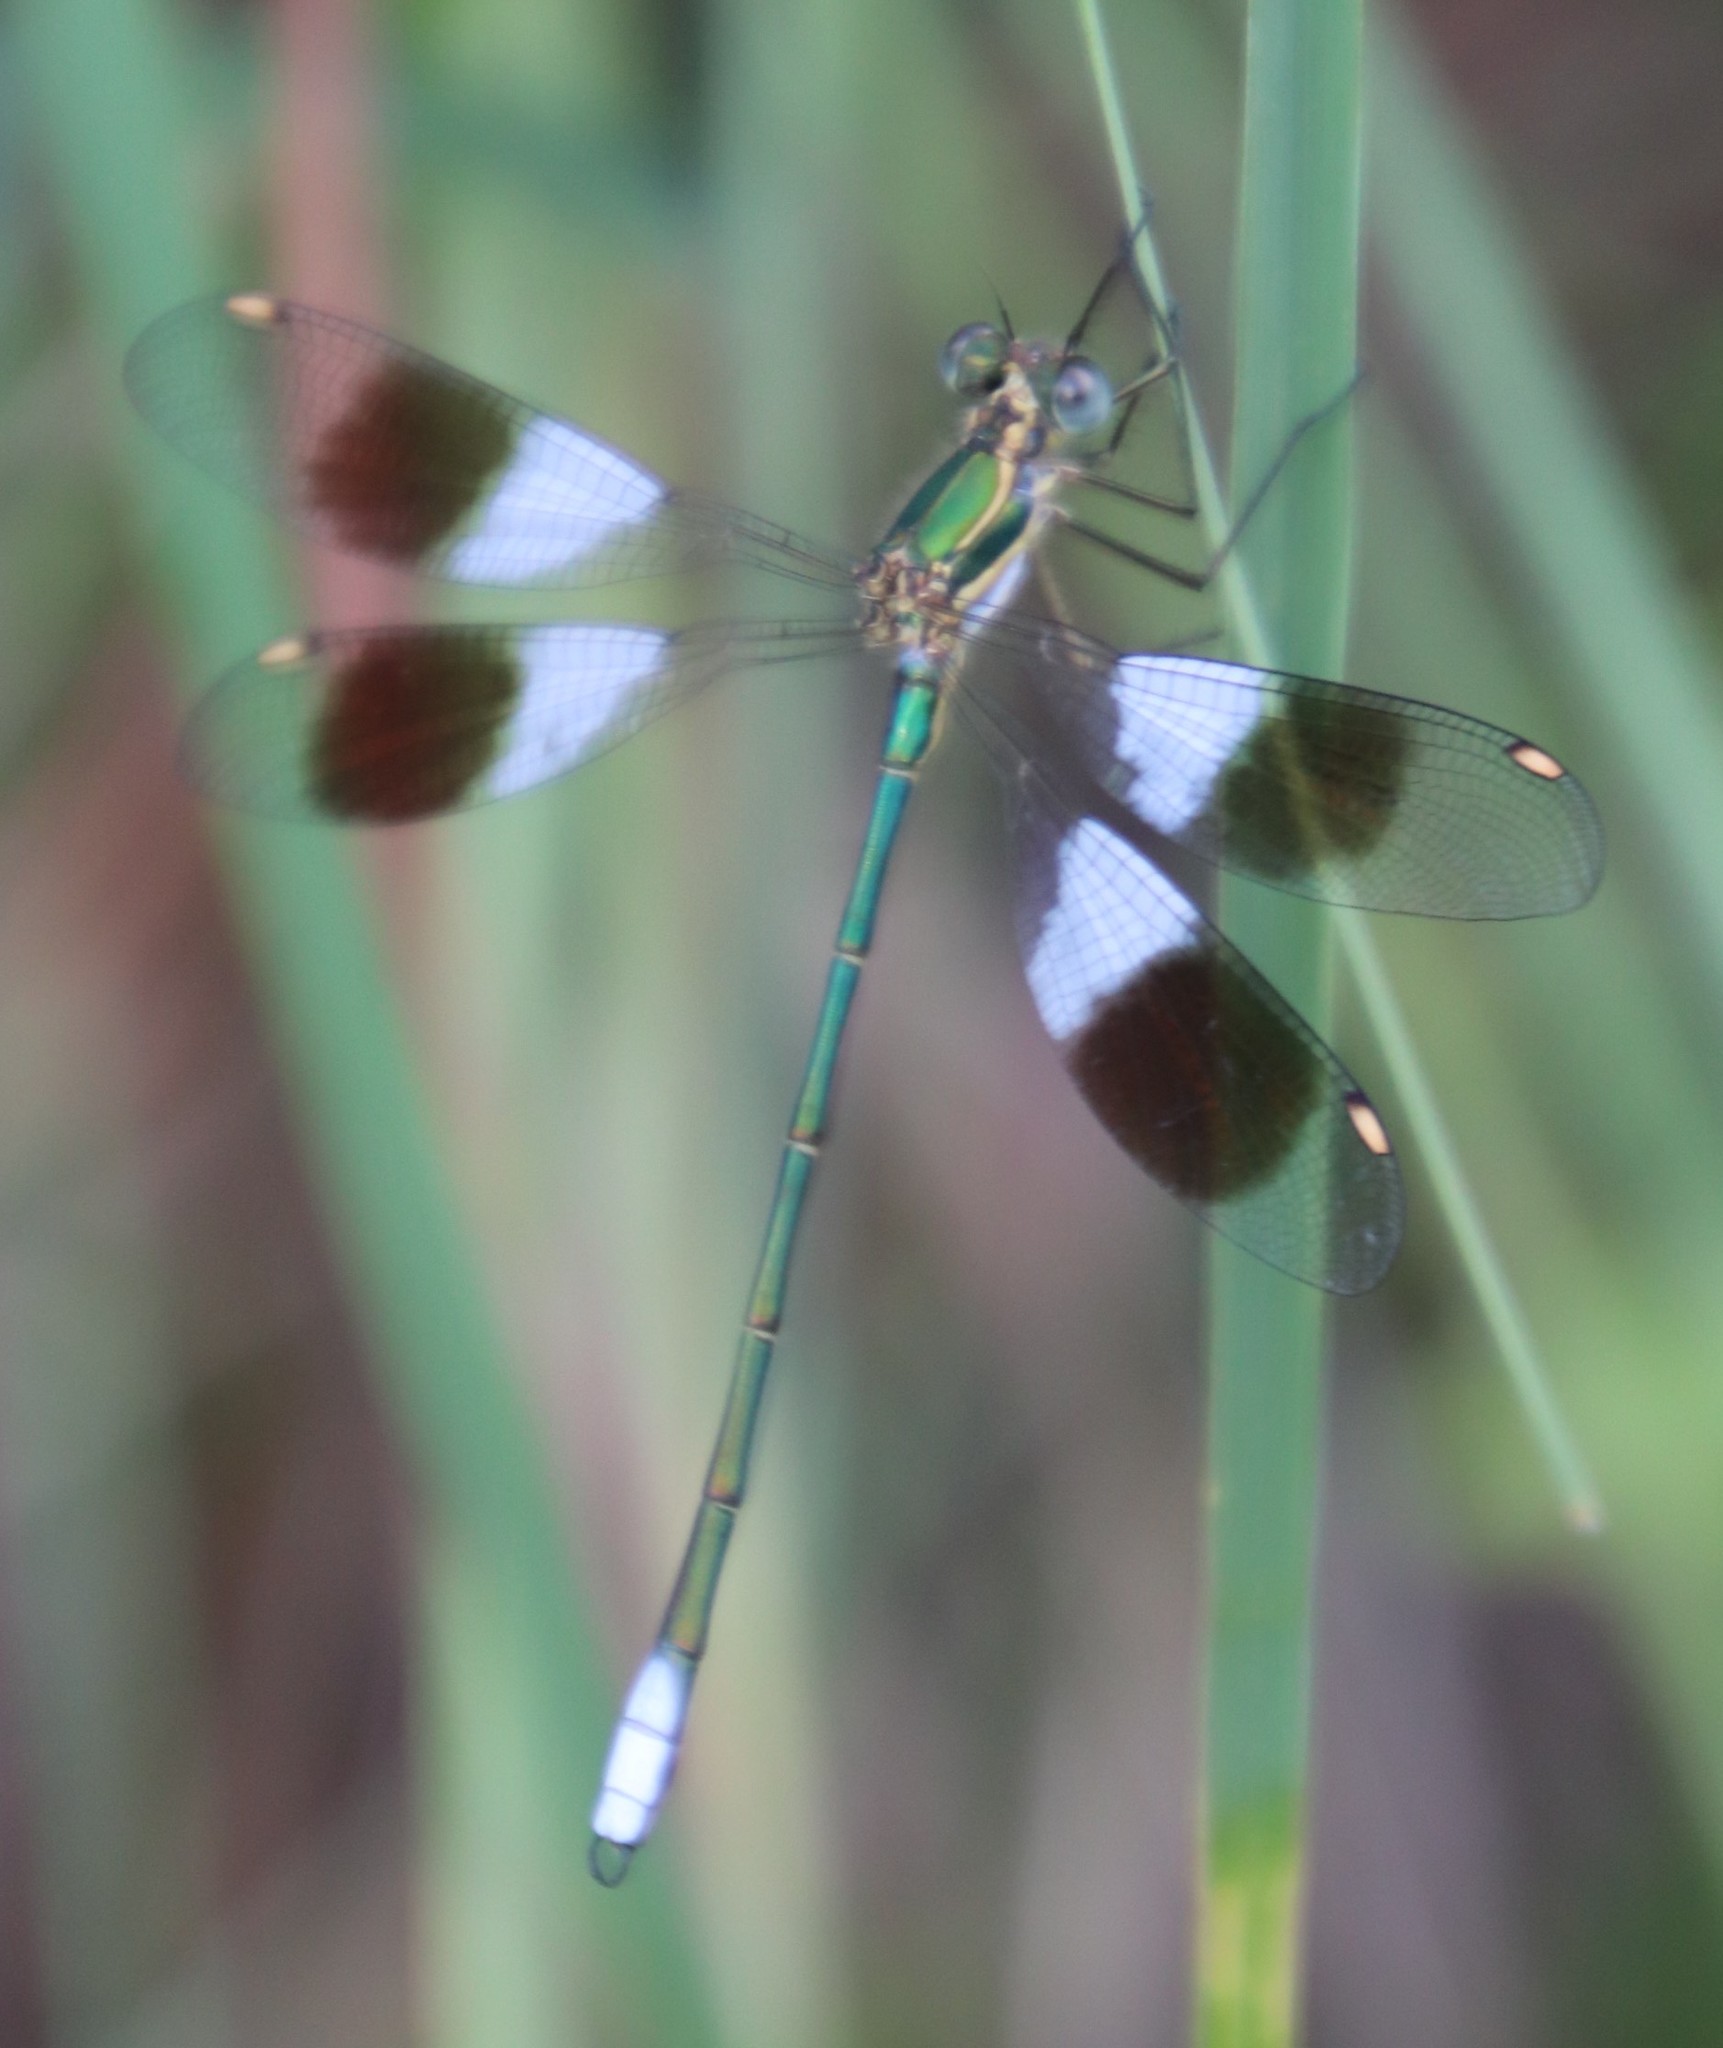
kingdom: Animalia
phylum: Arthropoda
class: Insecta
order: Odonata
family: Synlestidae
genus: Chlorolestes
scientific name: Chlorolestes fasciatus
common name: Mountain malachite
